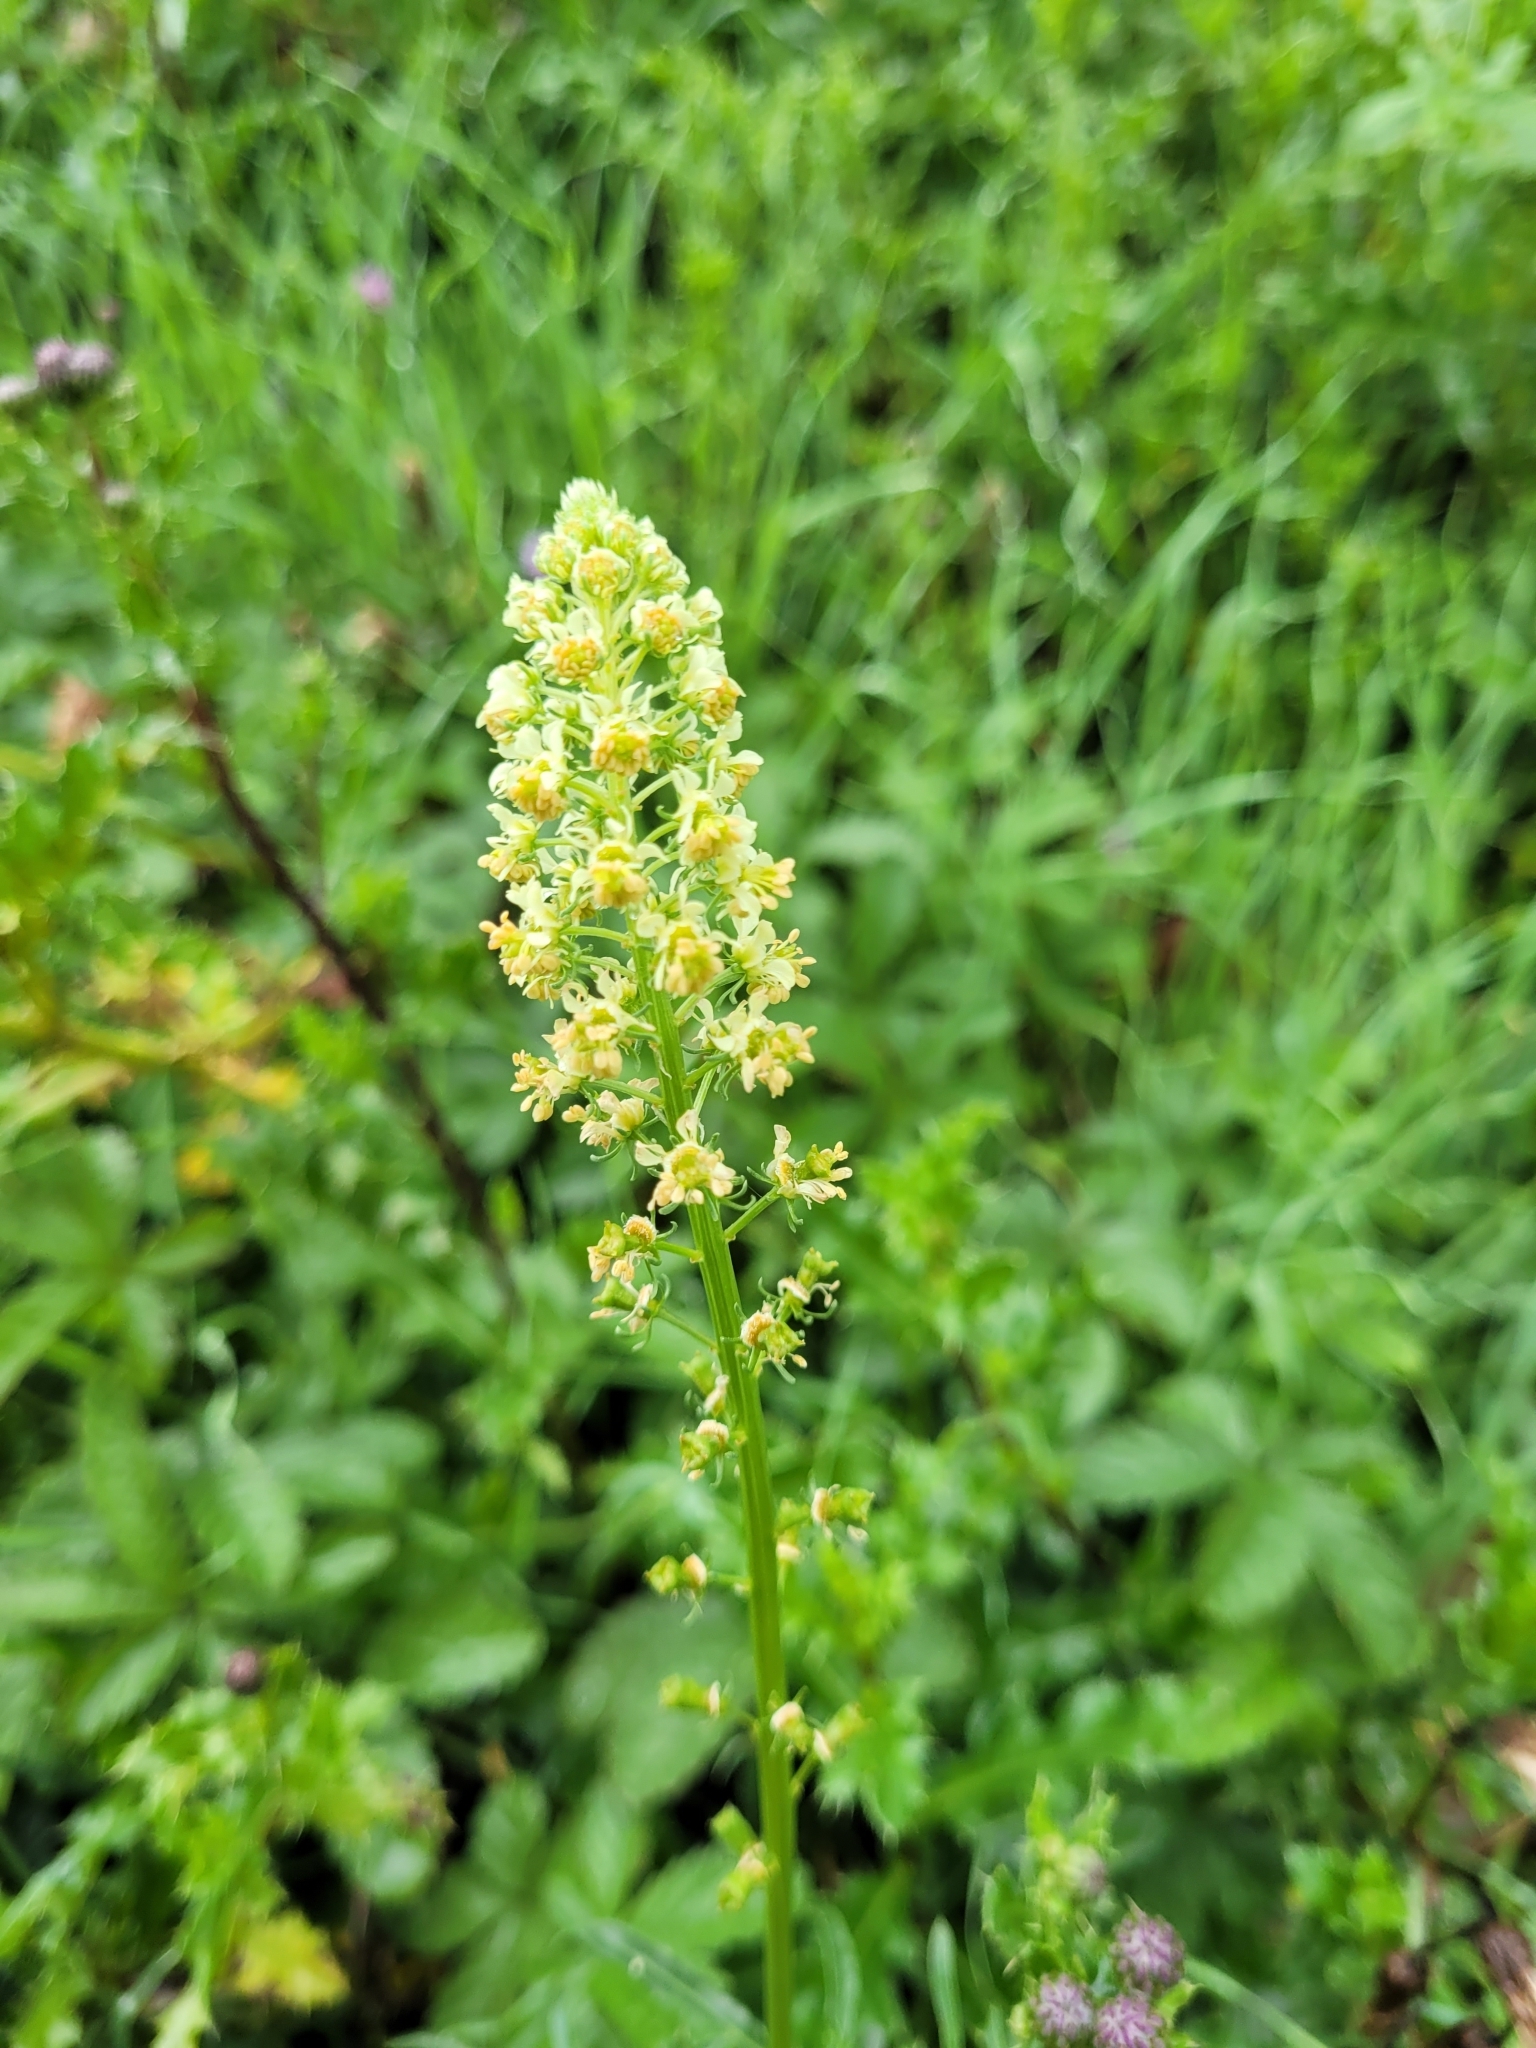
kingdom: Plantae
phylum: Tracheophyta
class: Magnoliopsida
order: Brassicales
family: Resedaceae
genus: Reseda
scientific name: Reseda lutea
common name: Wild mignonette
